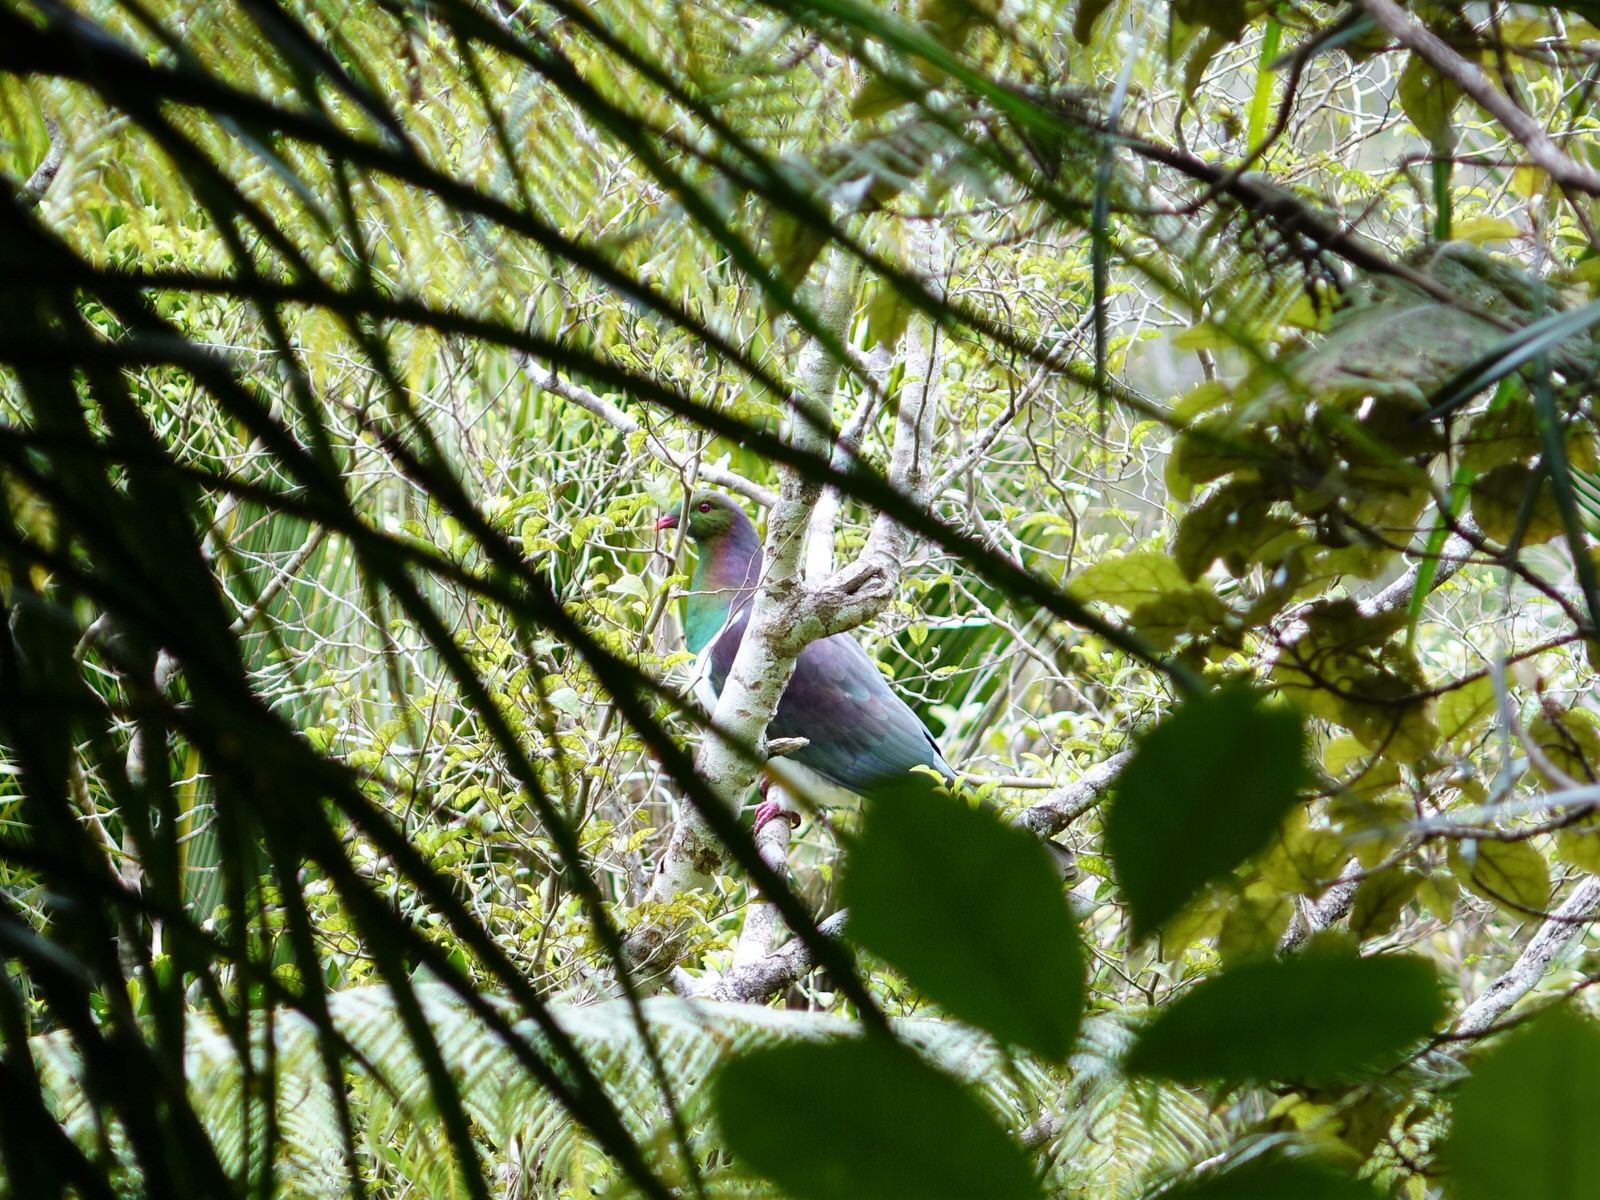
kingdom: Animalia
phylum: Chordata
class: Aves
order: Columbiformes
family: Columbidae
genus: Hemiphaga
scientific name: Hemiphaga novaeseelandiae
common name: New zealand pigeon
